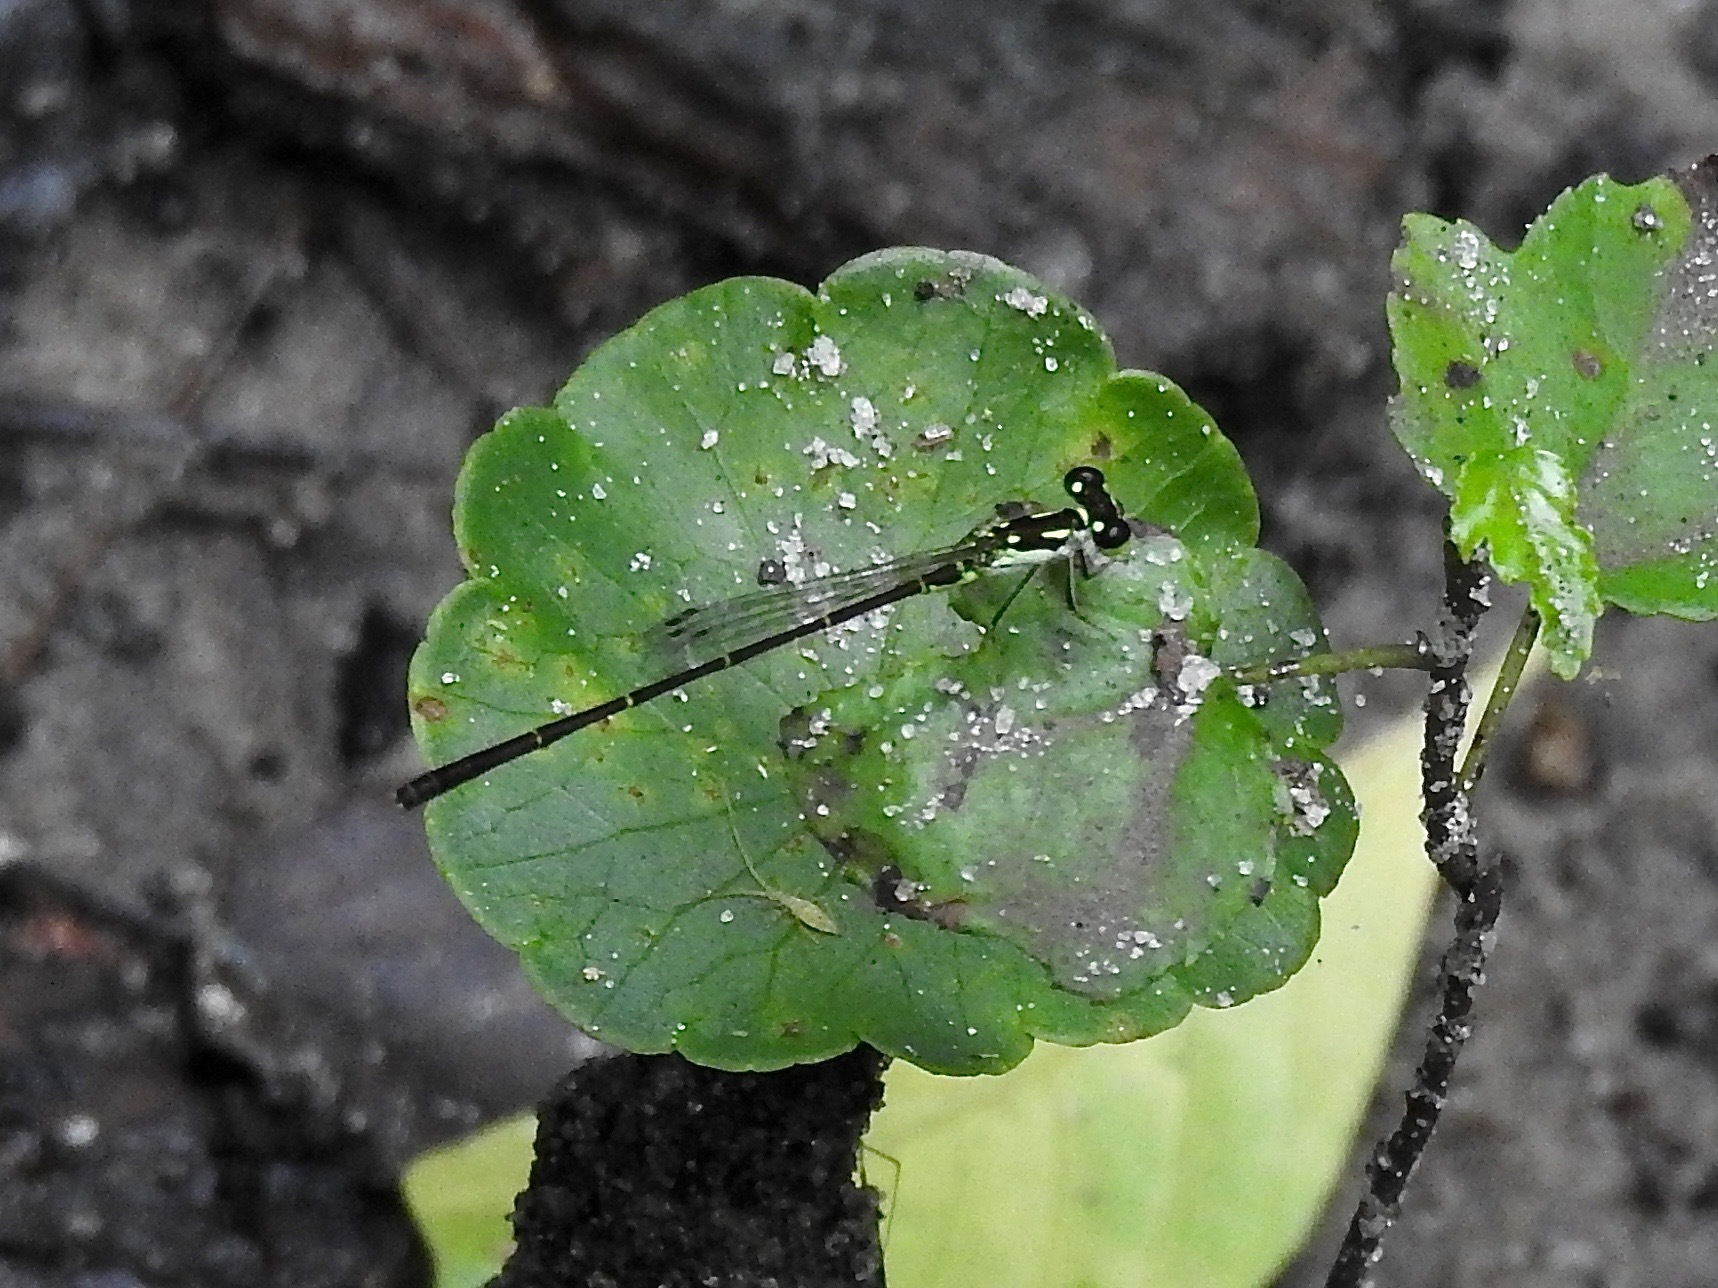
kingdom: Animalia
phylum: Arthropoda
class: Insecta
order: Odonata
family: Coenagrionidae
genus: Ischnura
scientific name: Ischnura posita
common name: Fragile forktail
